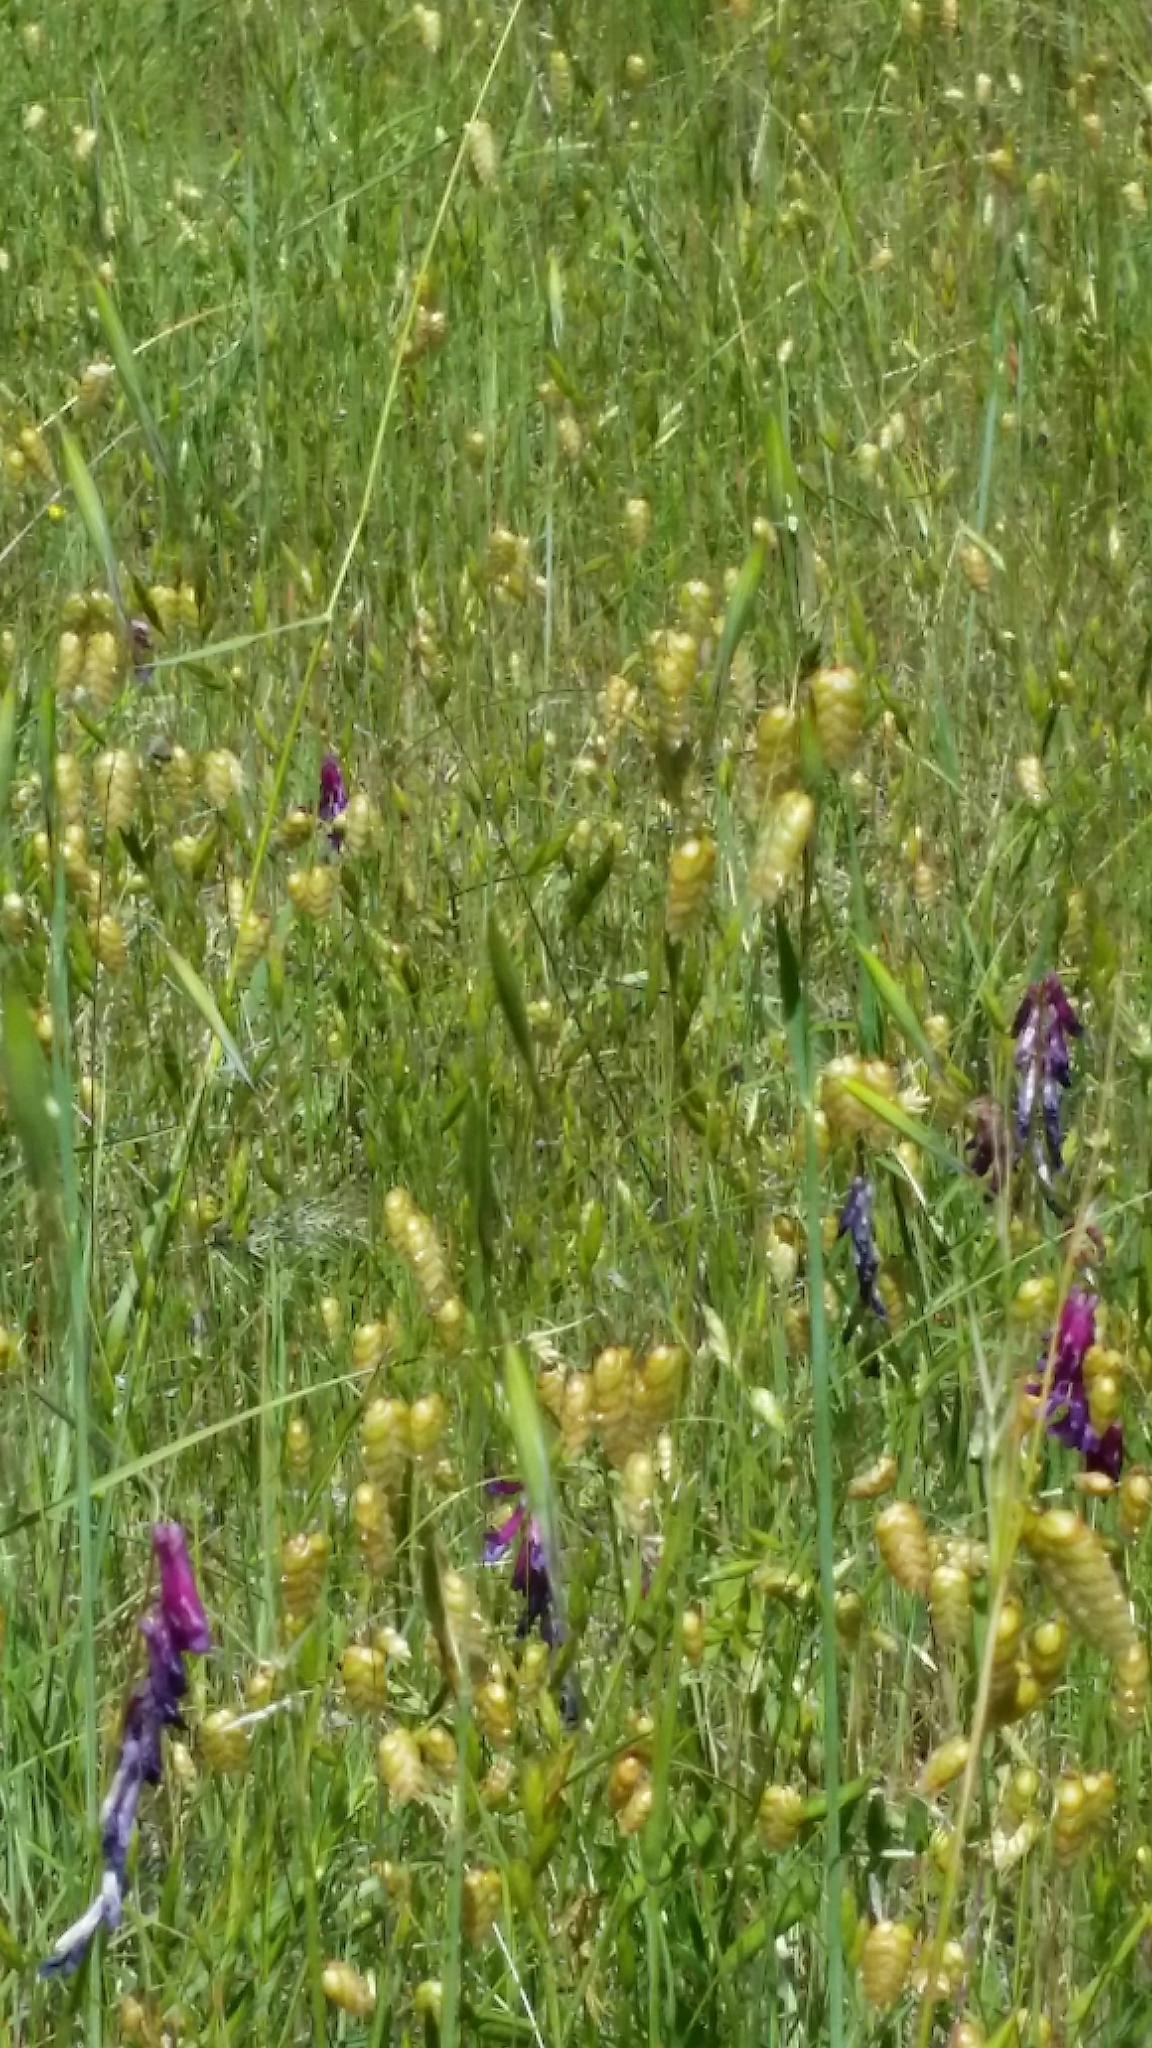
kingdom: Plantae
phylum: Tracheophyta
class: Liliopsida
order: Poales
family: Poaceae
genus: Briza
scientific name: Briza maxima
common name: Big quakinggrass
